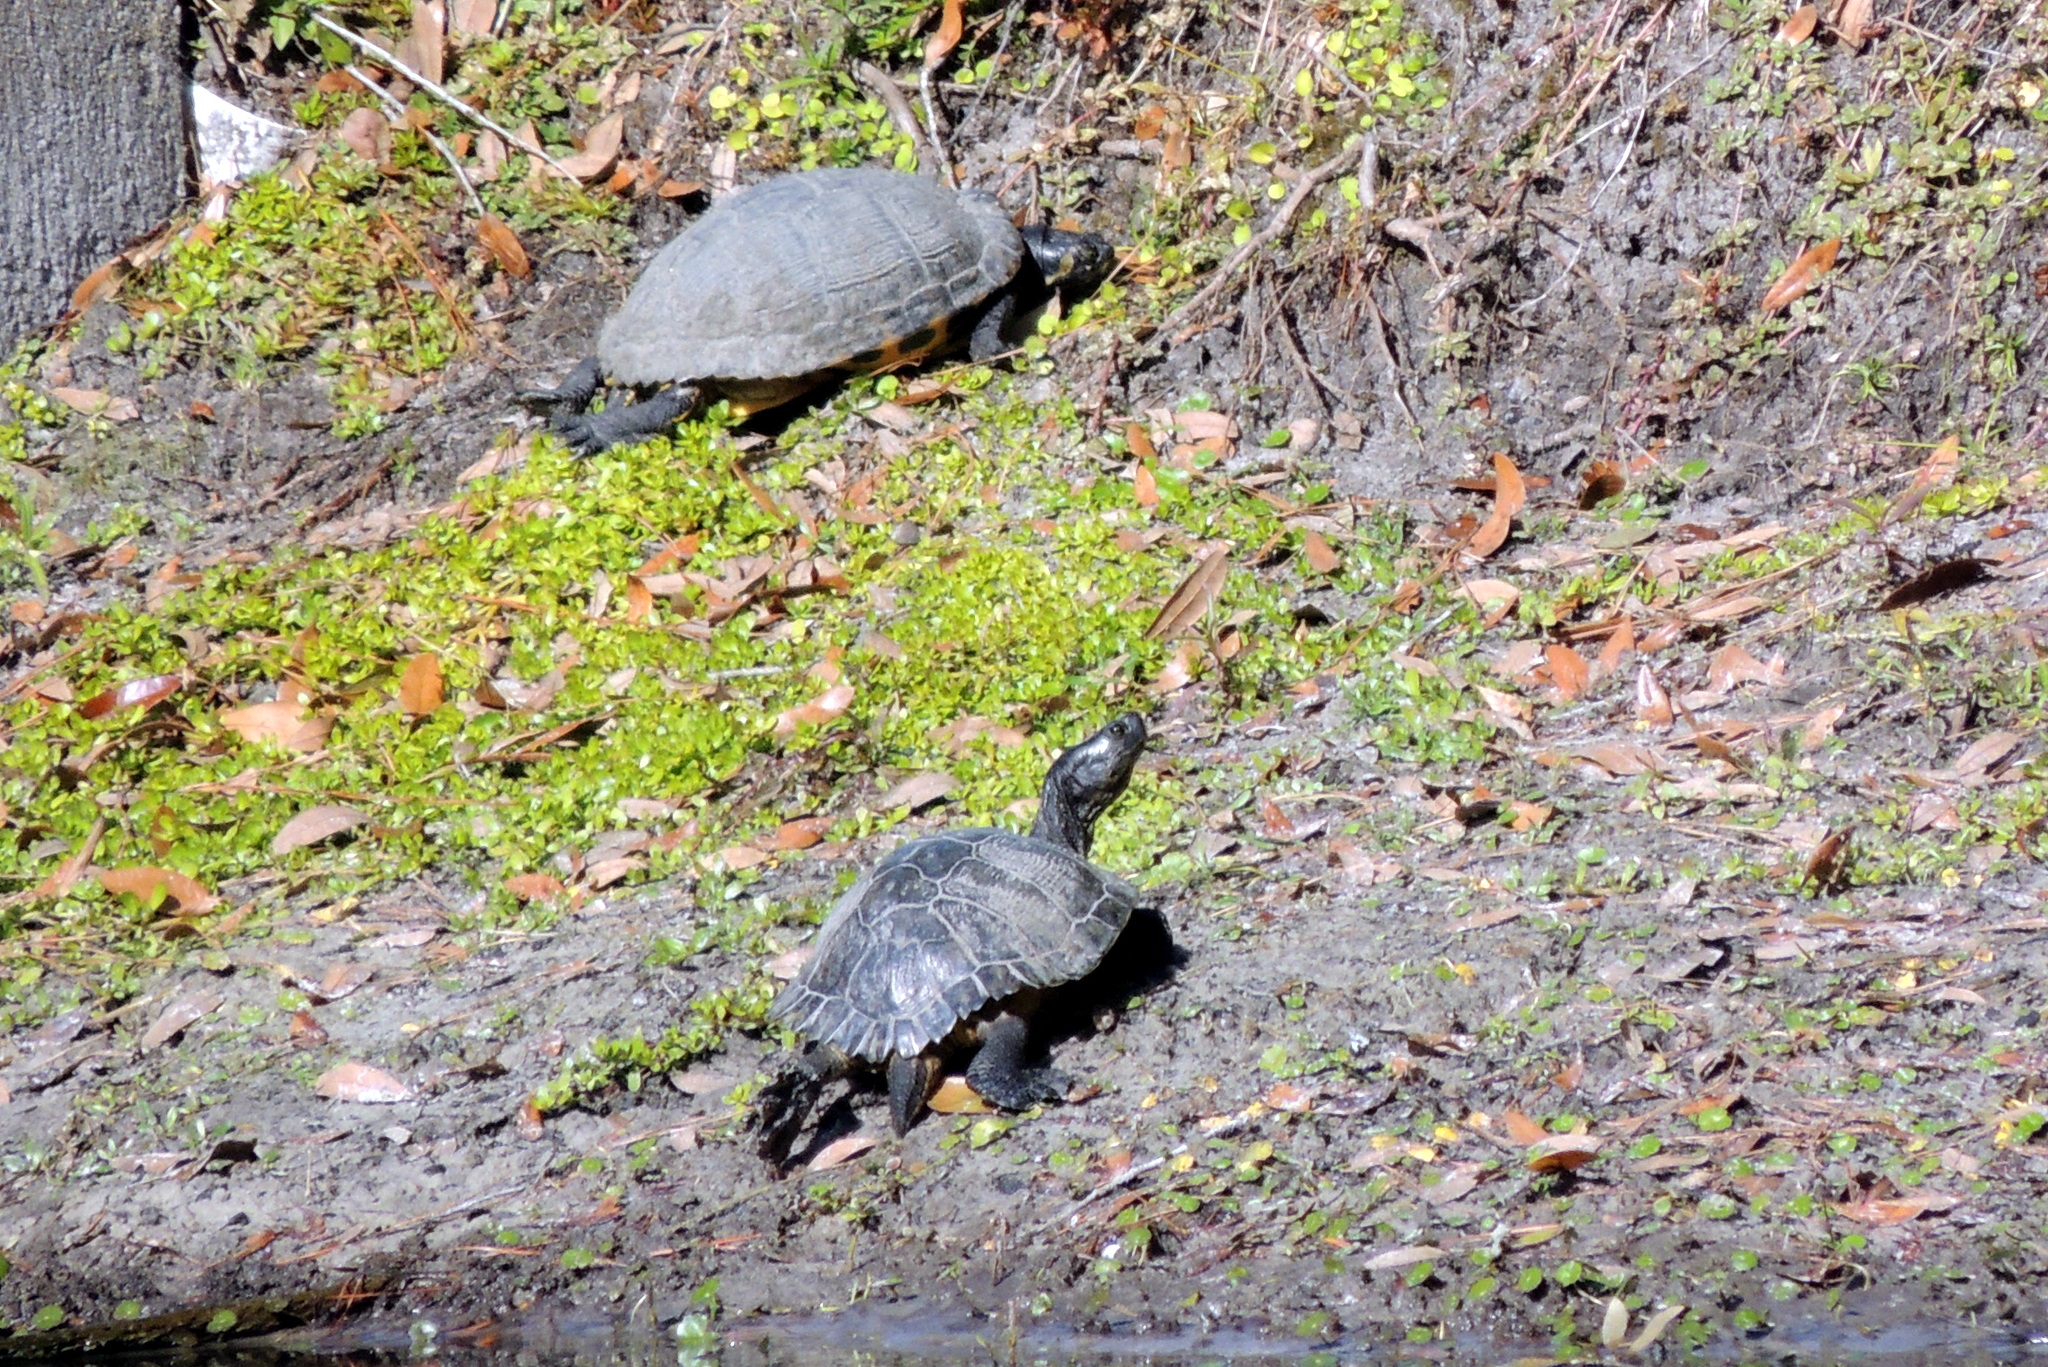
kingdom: Animalia
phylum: Chordata
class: Testudines
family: Emydidae
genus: Trachemys
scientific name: Trachemys scripta
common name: Slider
